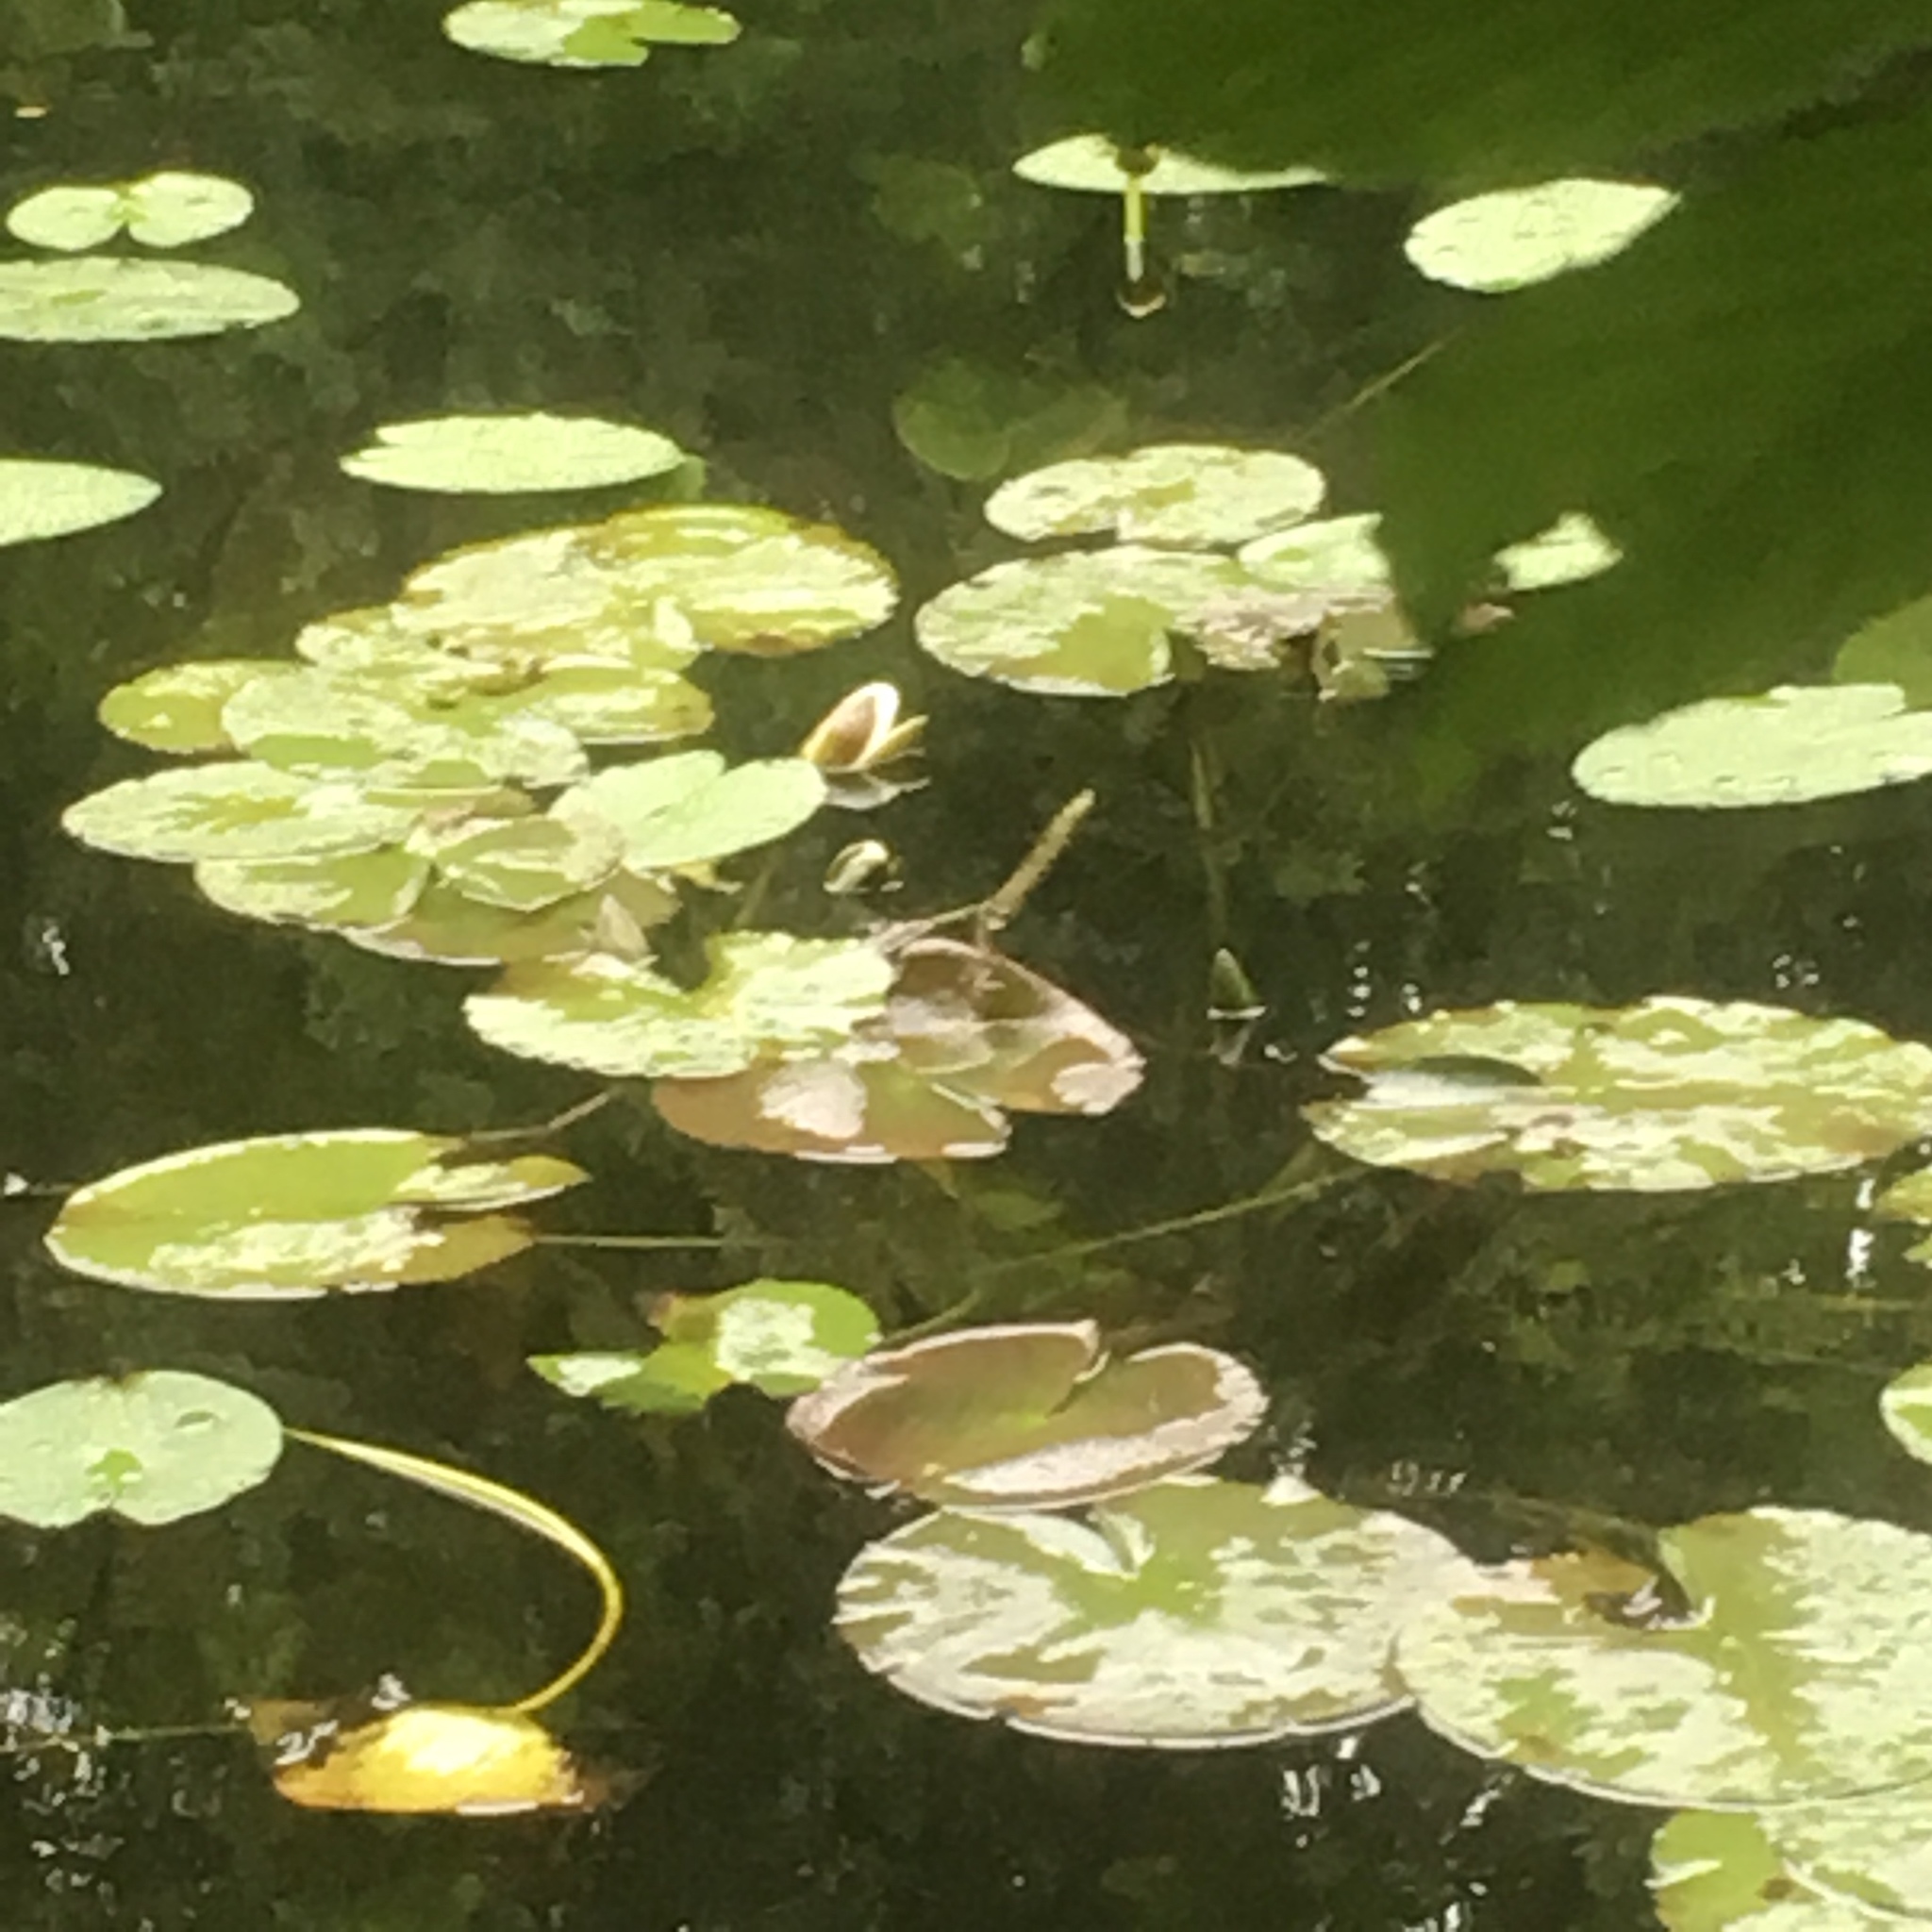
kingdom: Plantae
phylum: Tracheophyta
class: Magnoliopsida
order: Nymphaeales
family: Nymphaeaceae
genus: Nymphaea
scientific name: Nymphaea alba
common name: White water-lily
